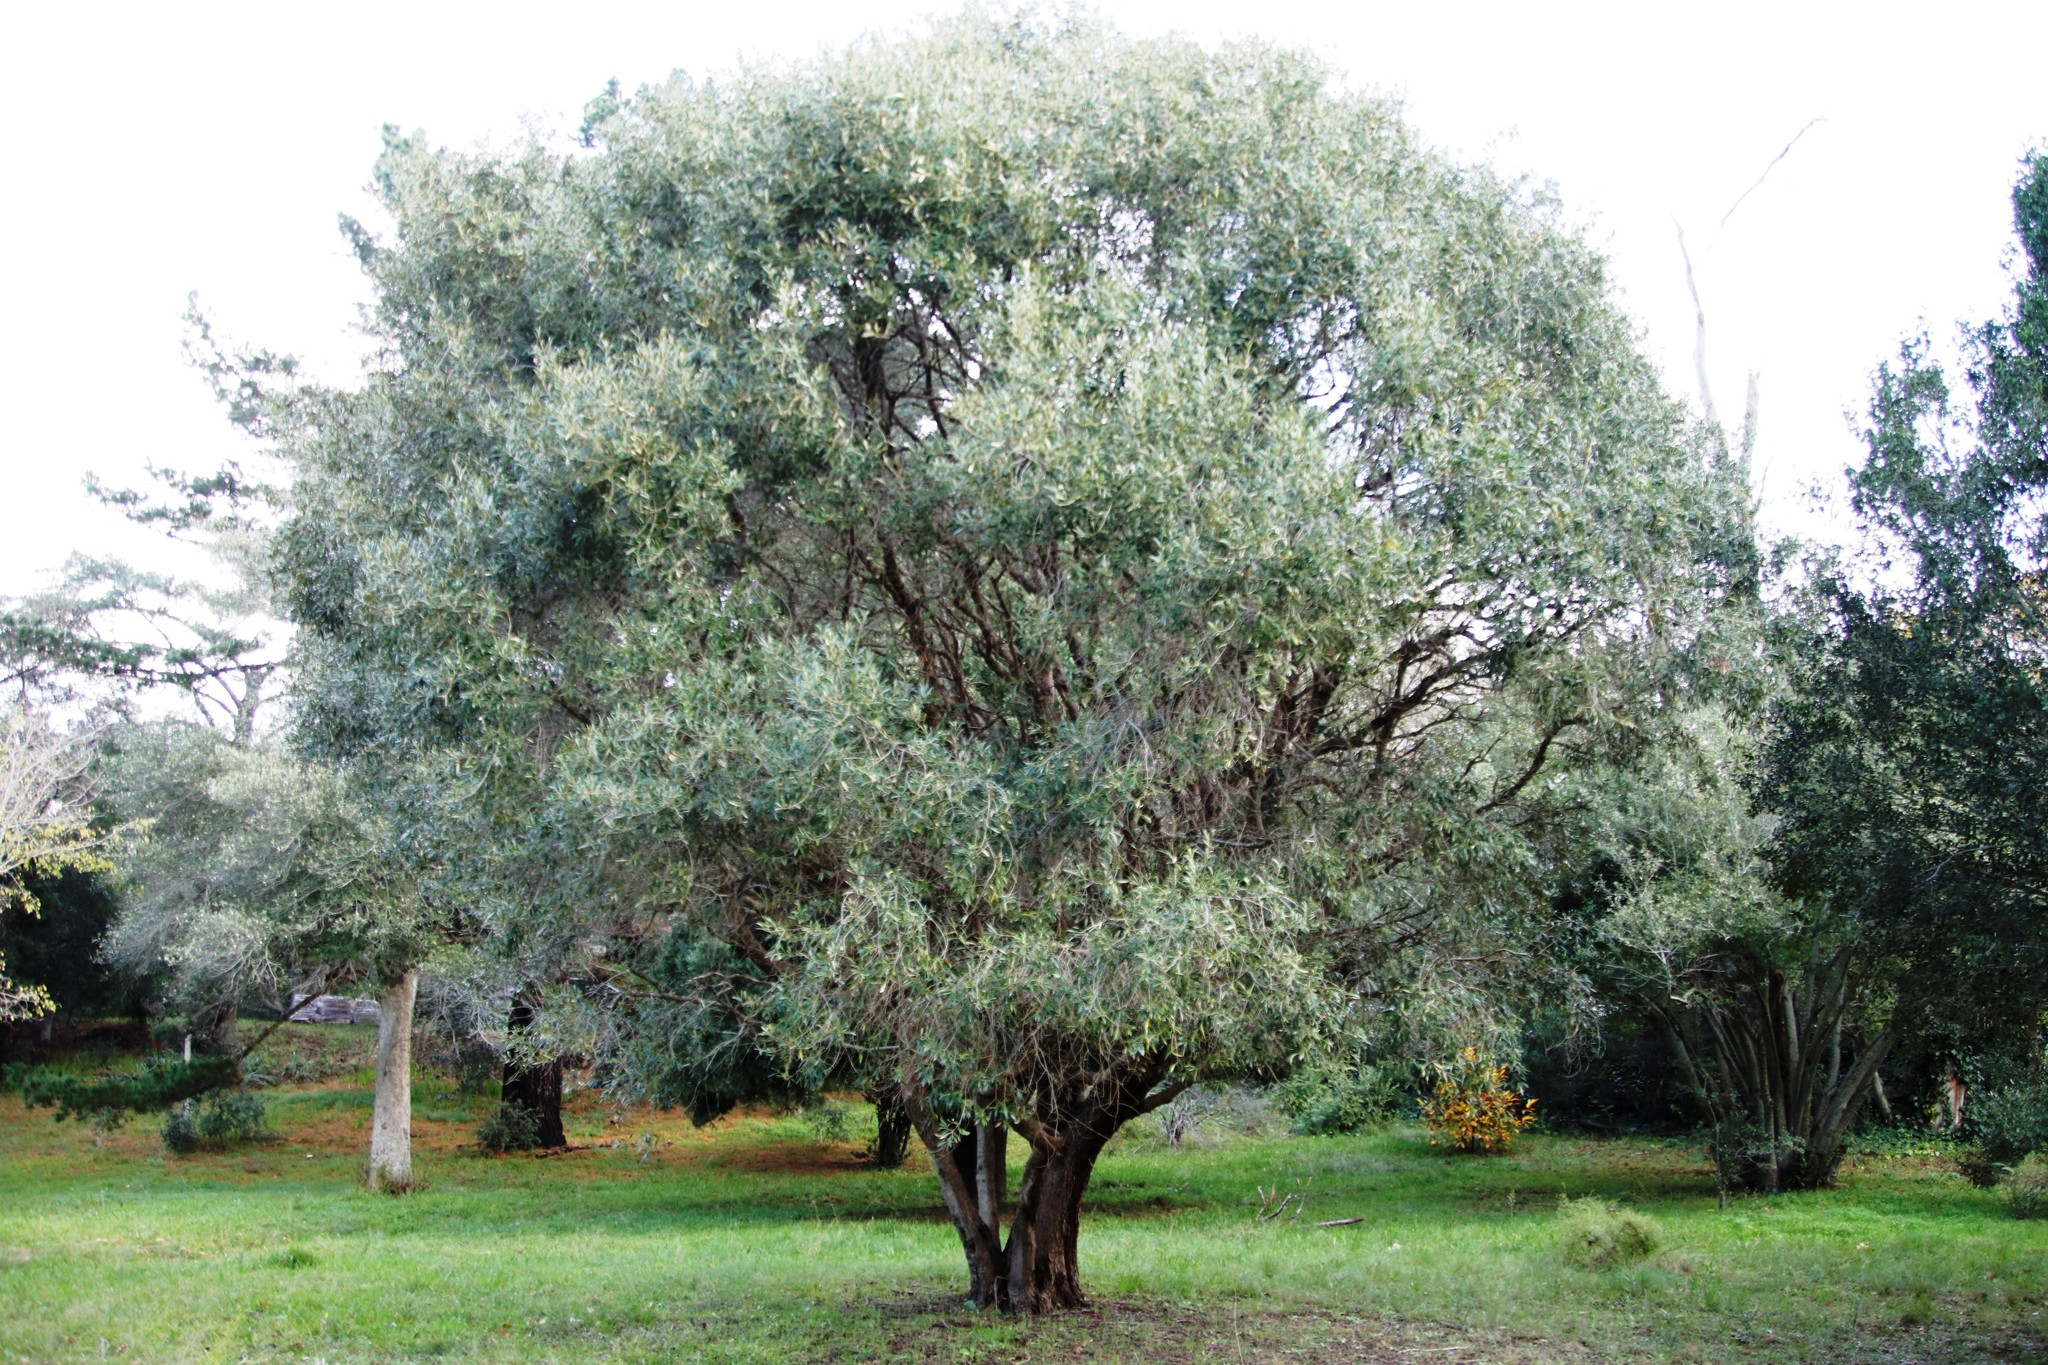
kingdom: Plantae
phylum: Tracheophyta
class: Magnoliopsida
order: Lamiales
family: Oleaceae
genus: Olea
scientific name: Olea europaea
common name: Olive
